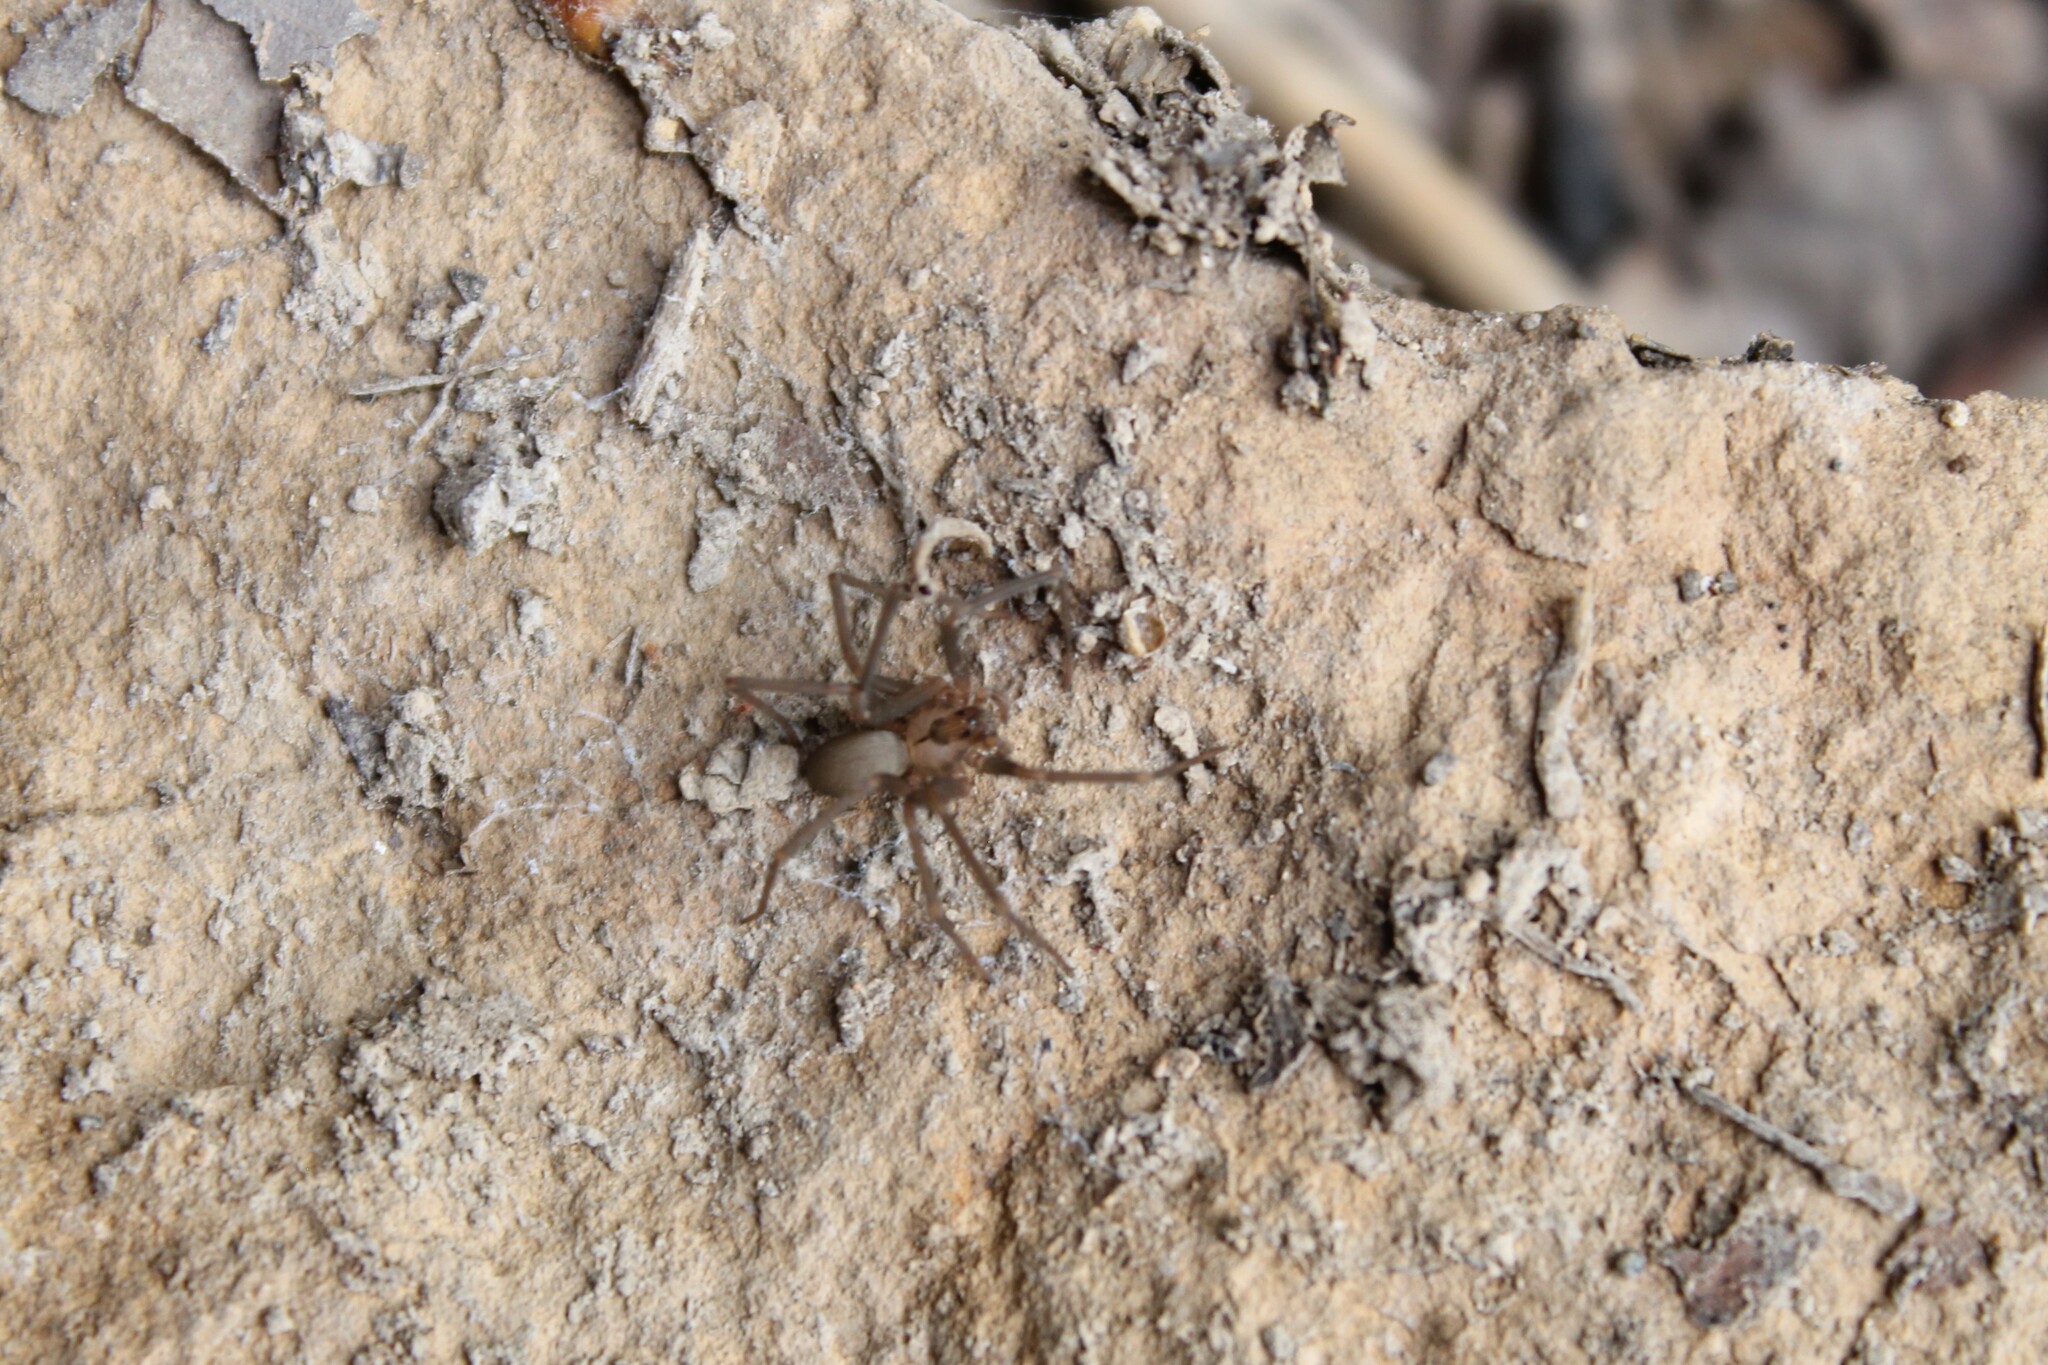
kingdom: Animalia
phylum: Arthropoda
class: Arachnida
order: Araneae
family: Sicariidae
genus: Loxosceles
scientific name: Loxosceles reclusa
